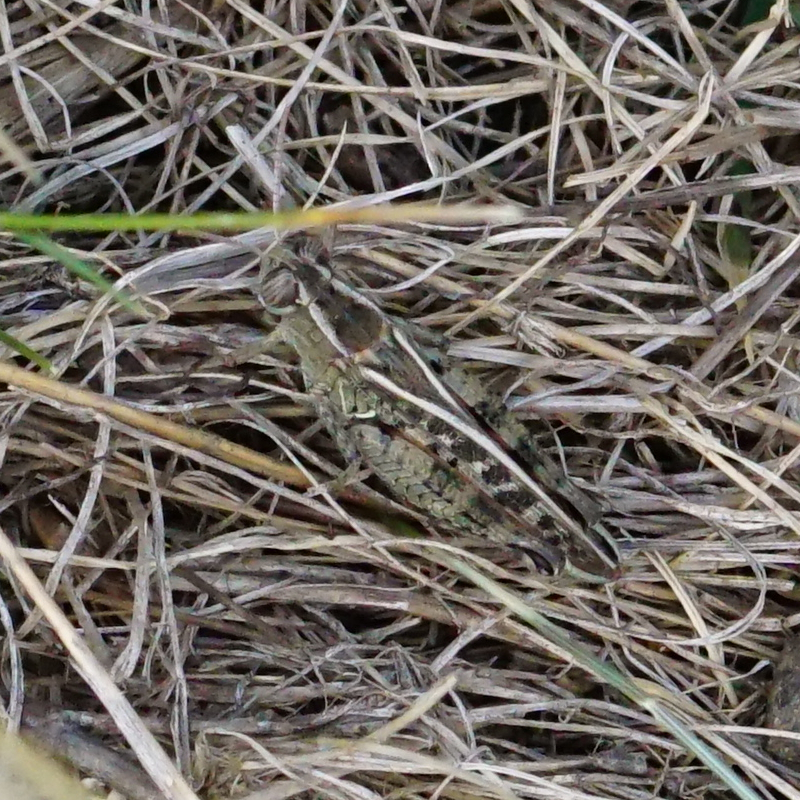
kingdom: Animalia
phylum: Arthropoda
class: Insecta
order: Orthoptera
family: Acrididae
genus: Calliptamus
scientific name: Calliptamus italicus
